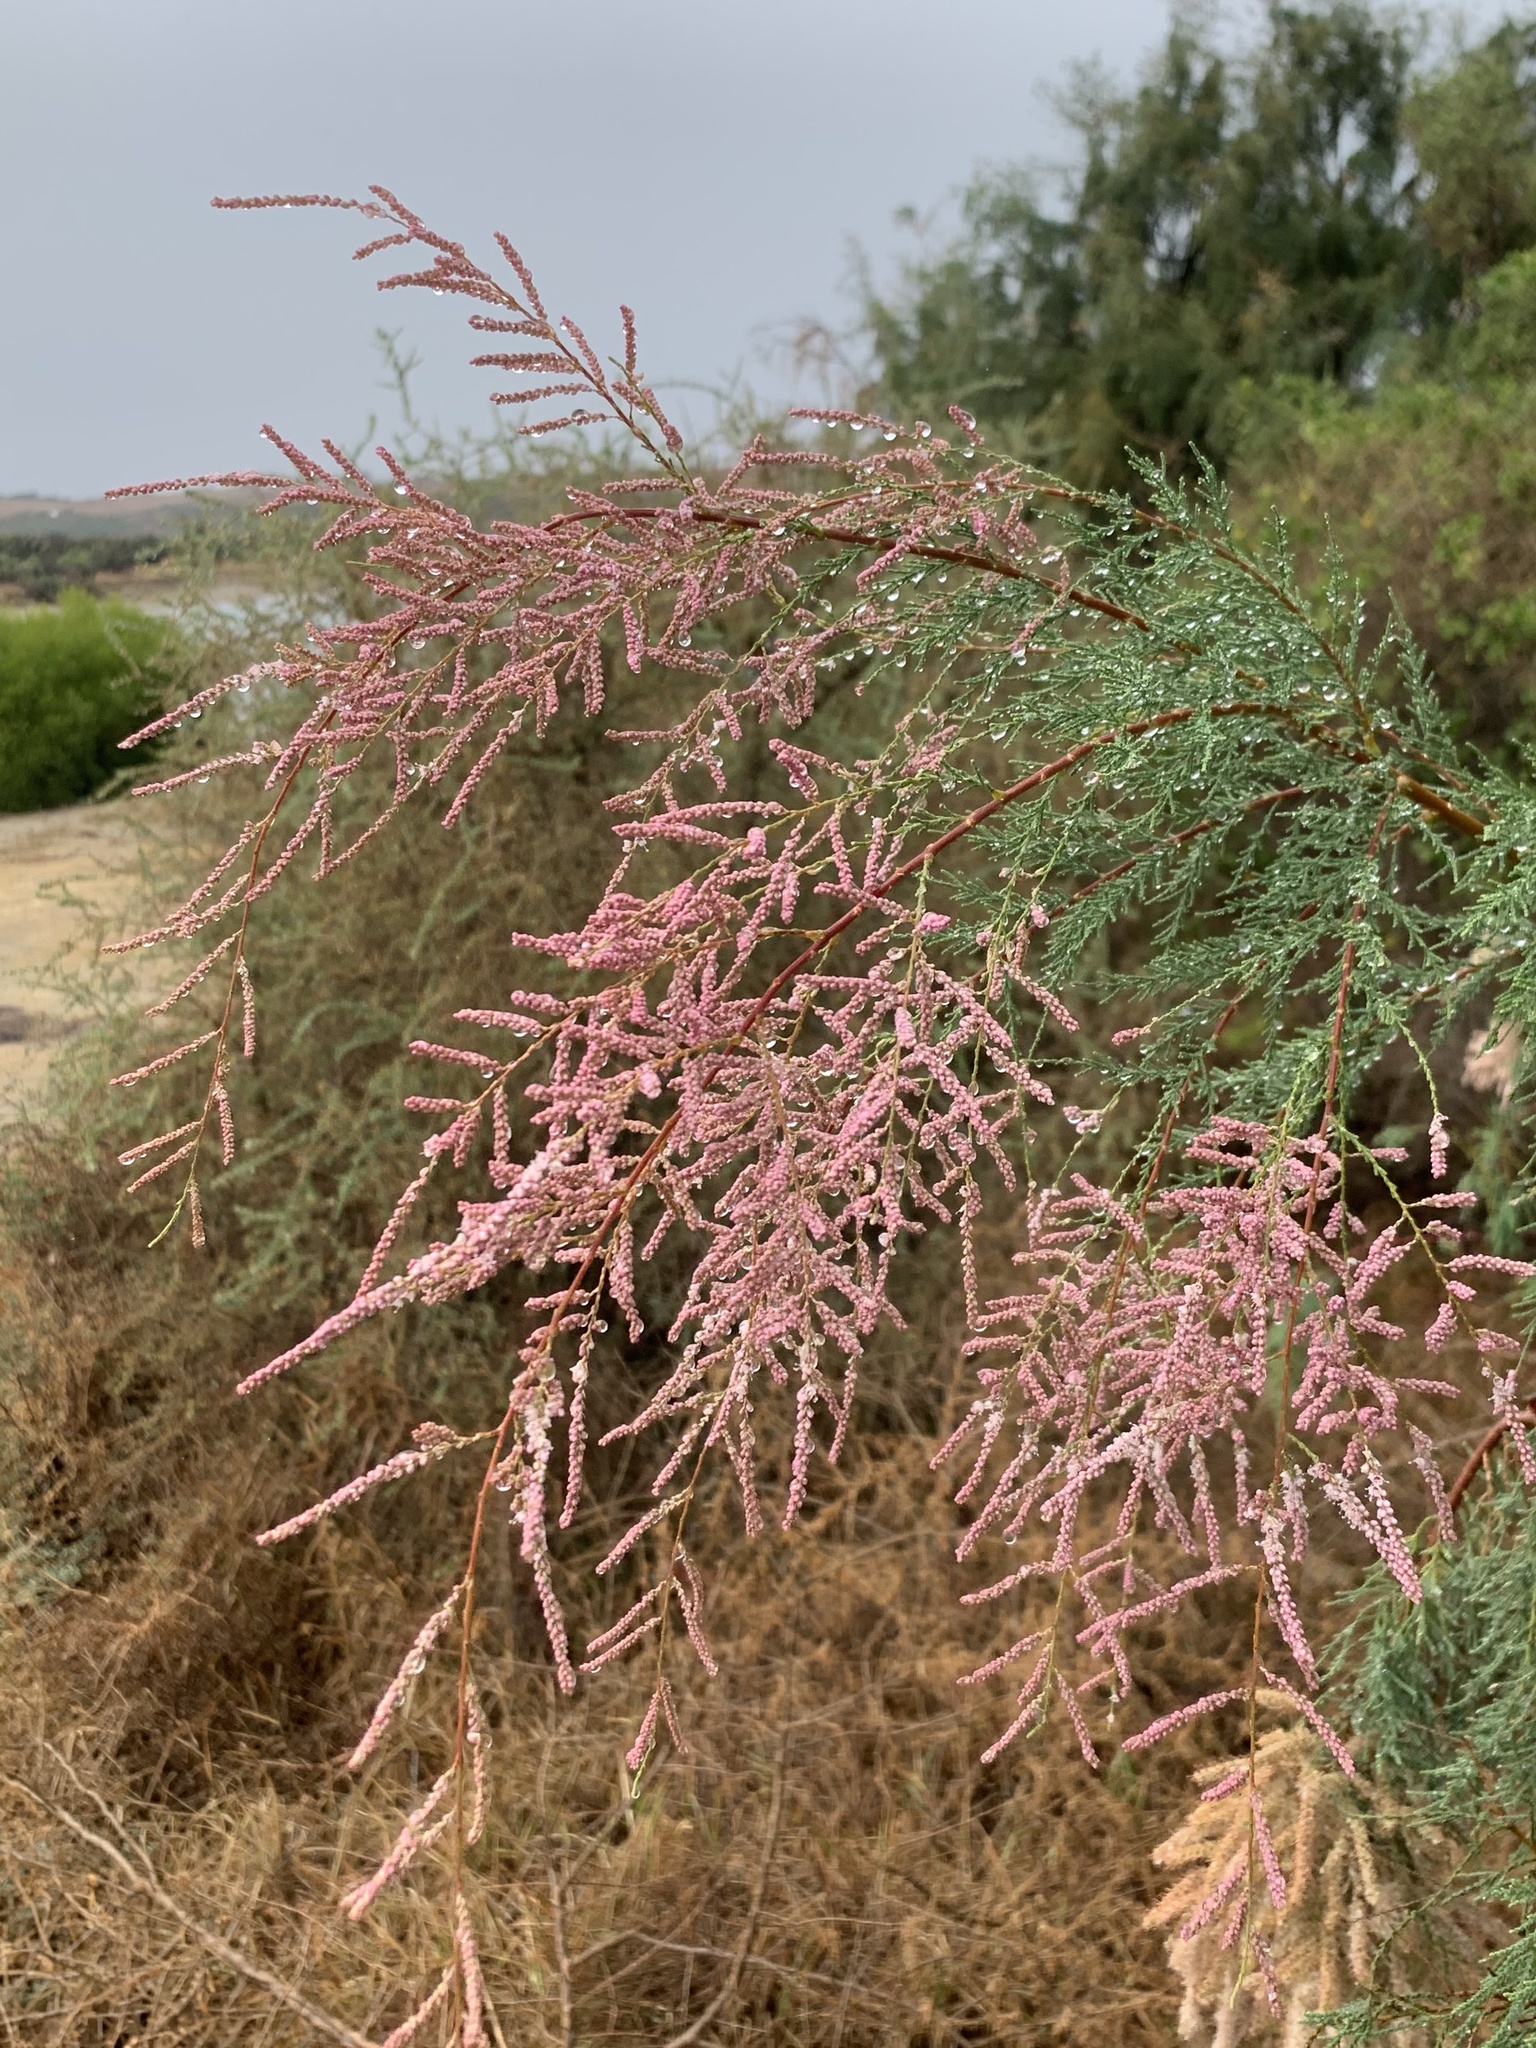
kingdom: Plantae
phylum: Tracheophyta
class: Magnoliopsida
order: Caryophyllales
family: Tamaricaceae
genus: Tamarix
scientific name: Tamarix ramosissima
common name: Pink tamarisk
